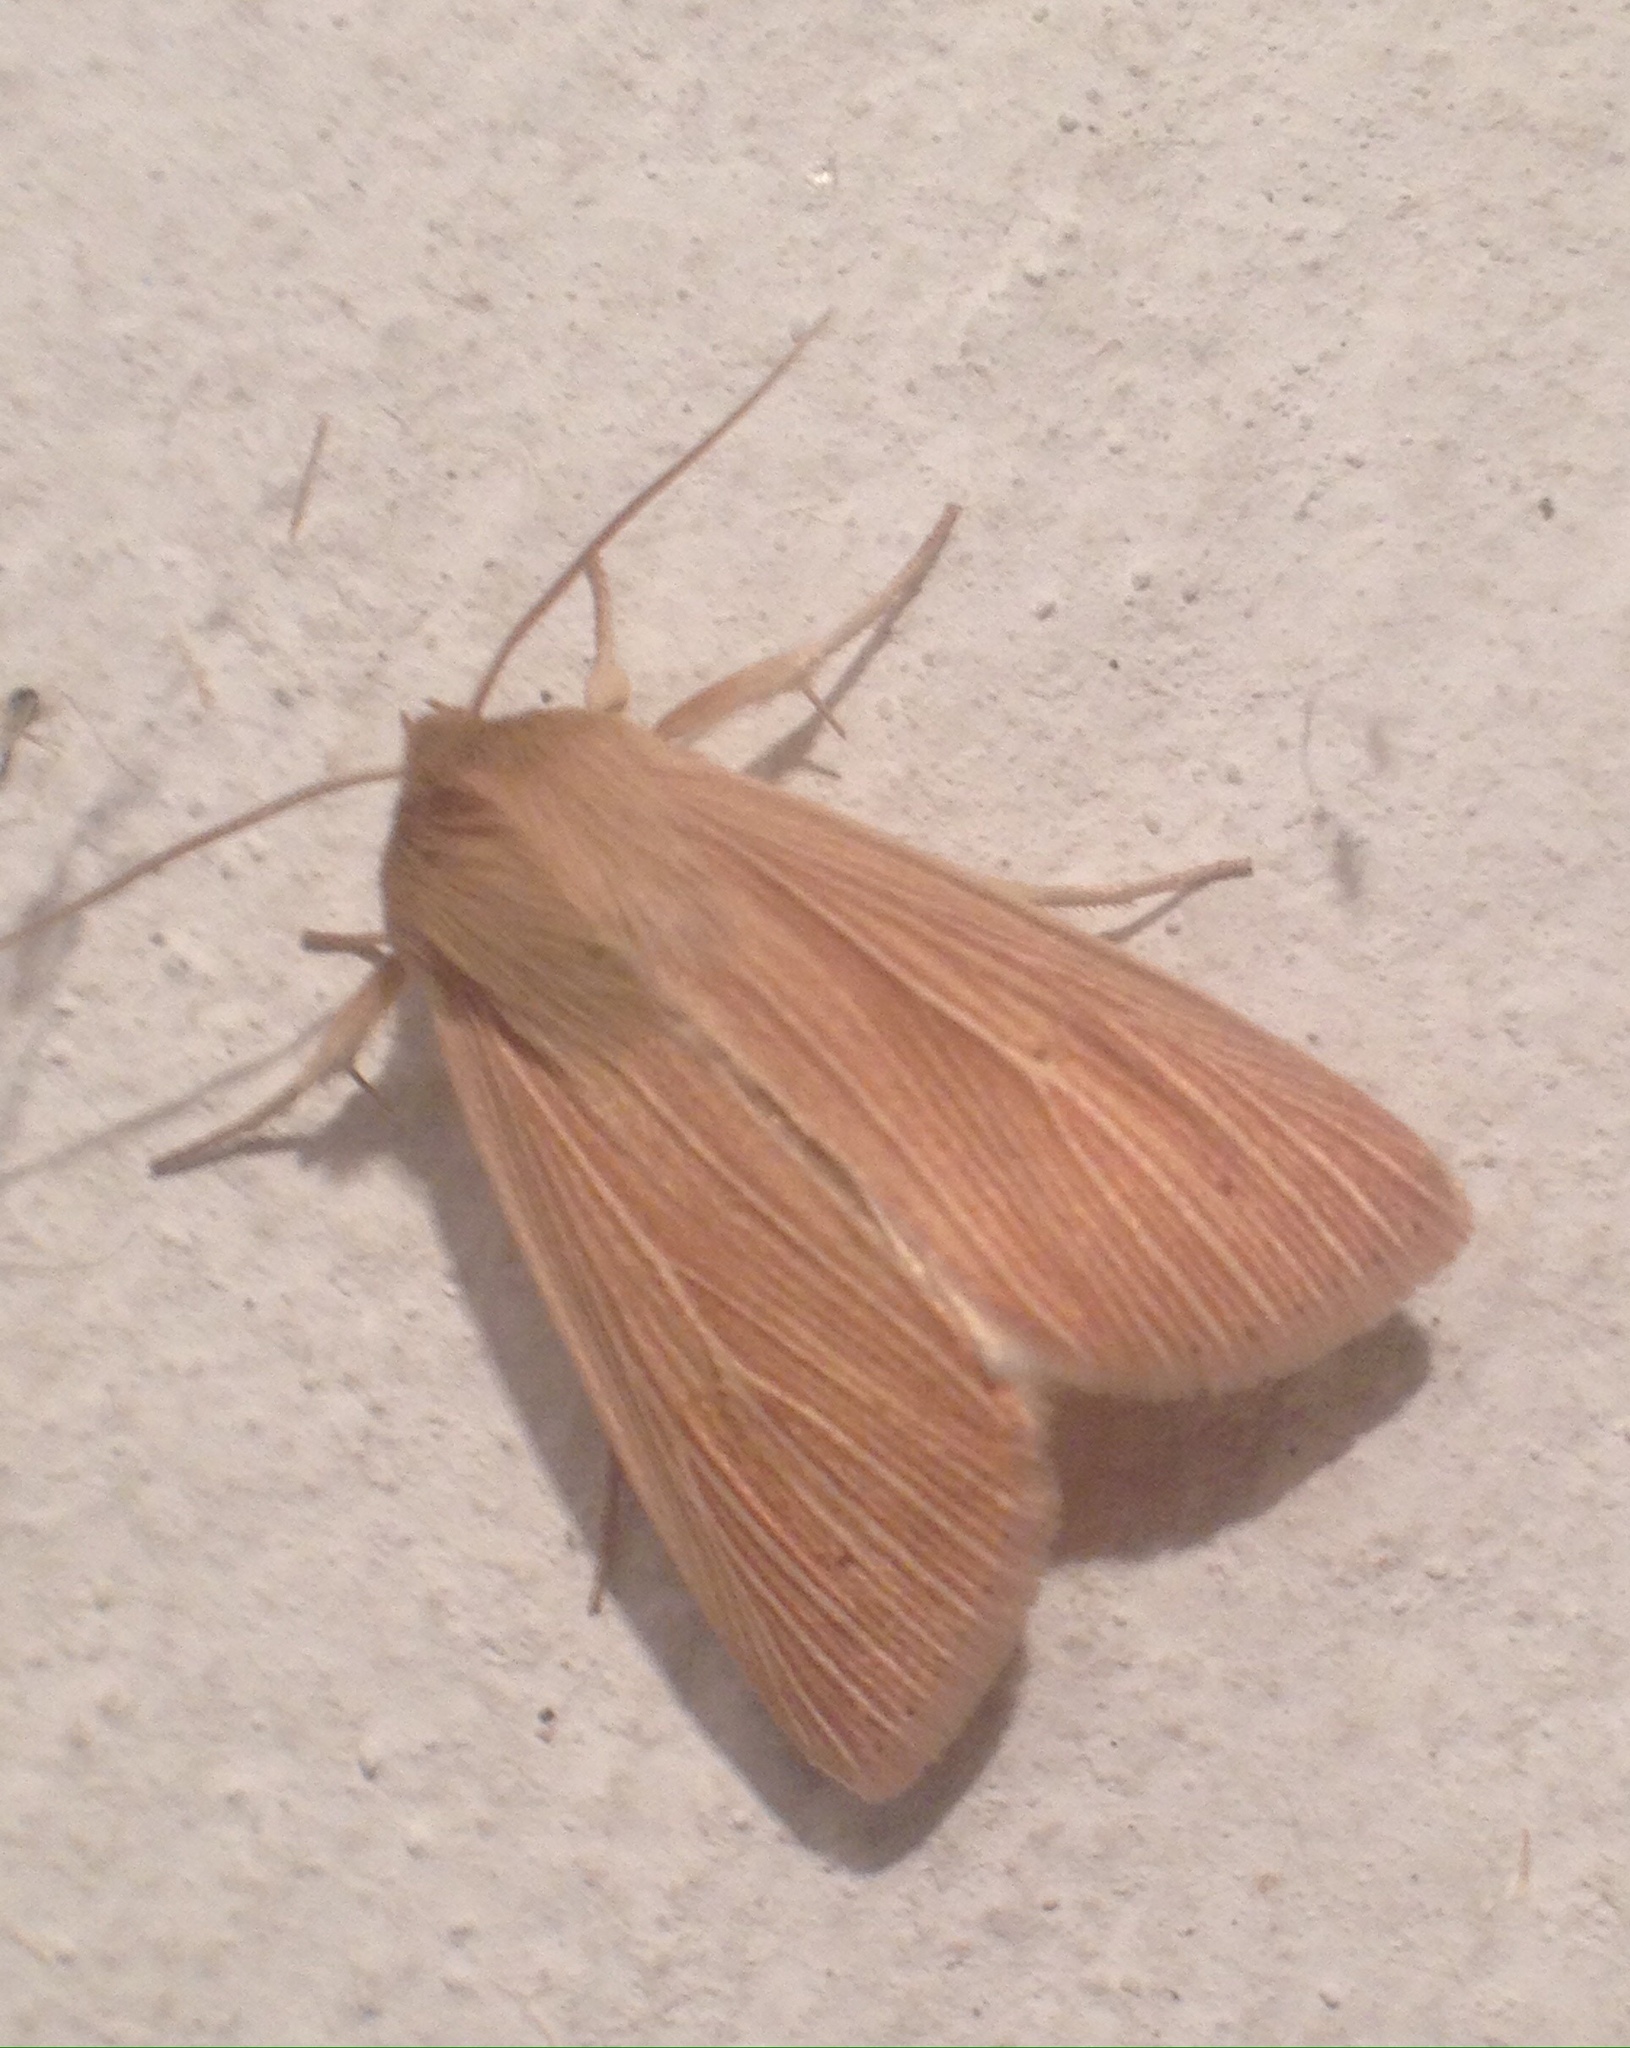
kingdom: Animalia
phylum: Arthropoda
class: Insecta
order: Lepidoptera
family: Noctuidae
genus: Mythimna
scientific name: Mythimna pallens
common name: Common wainscot
